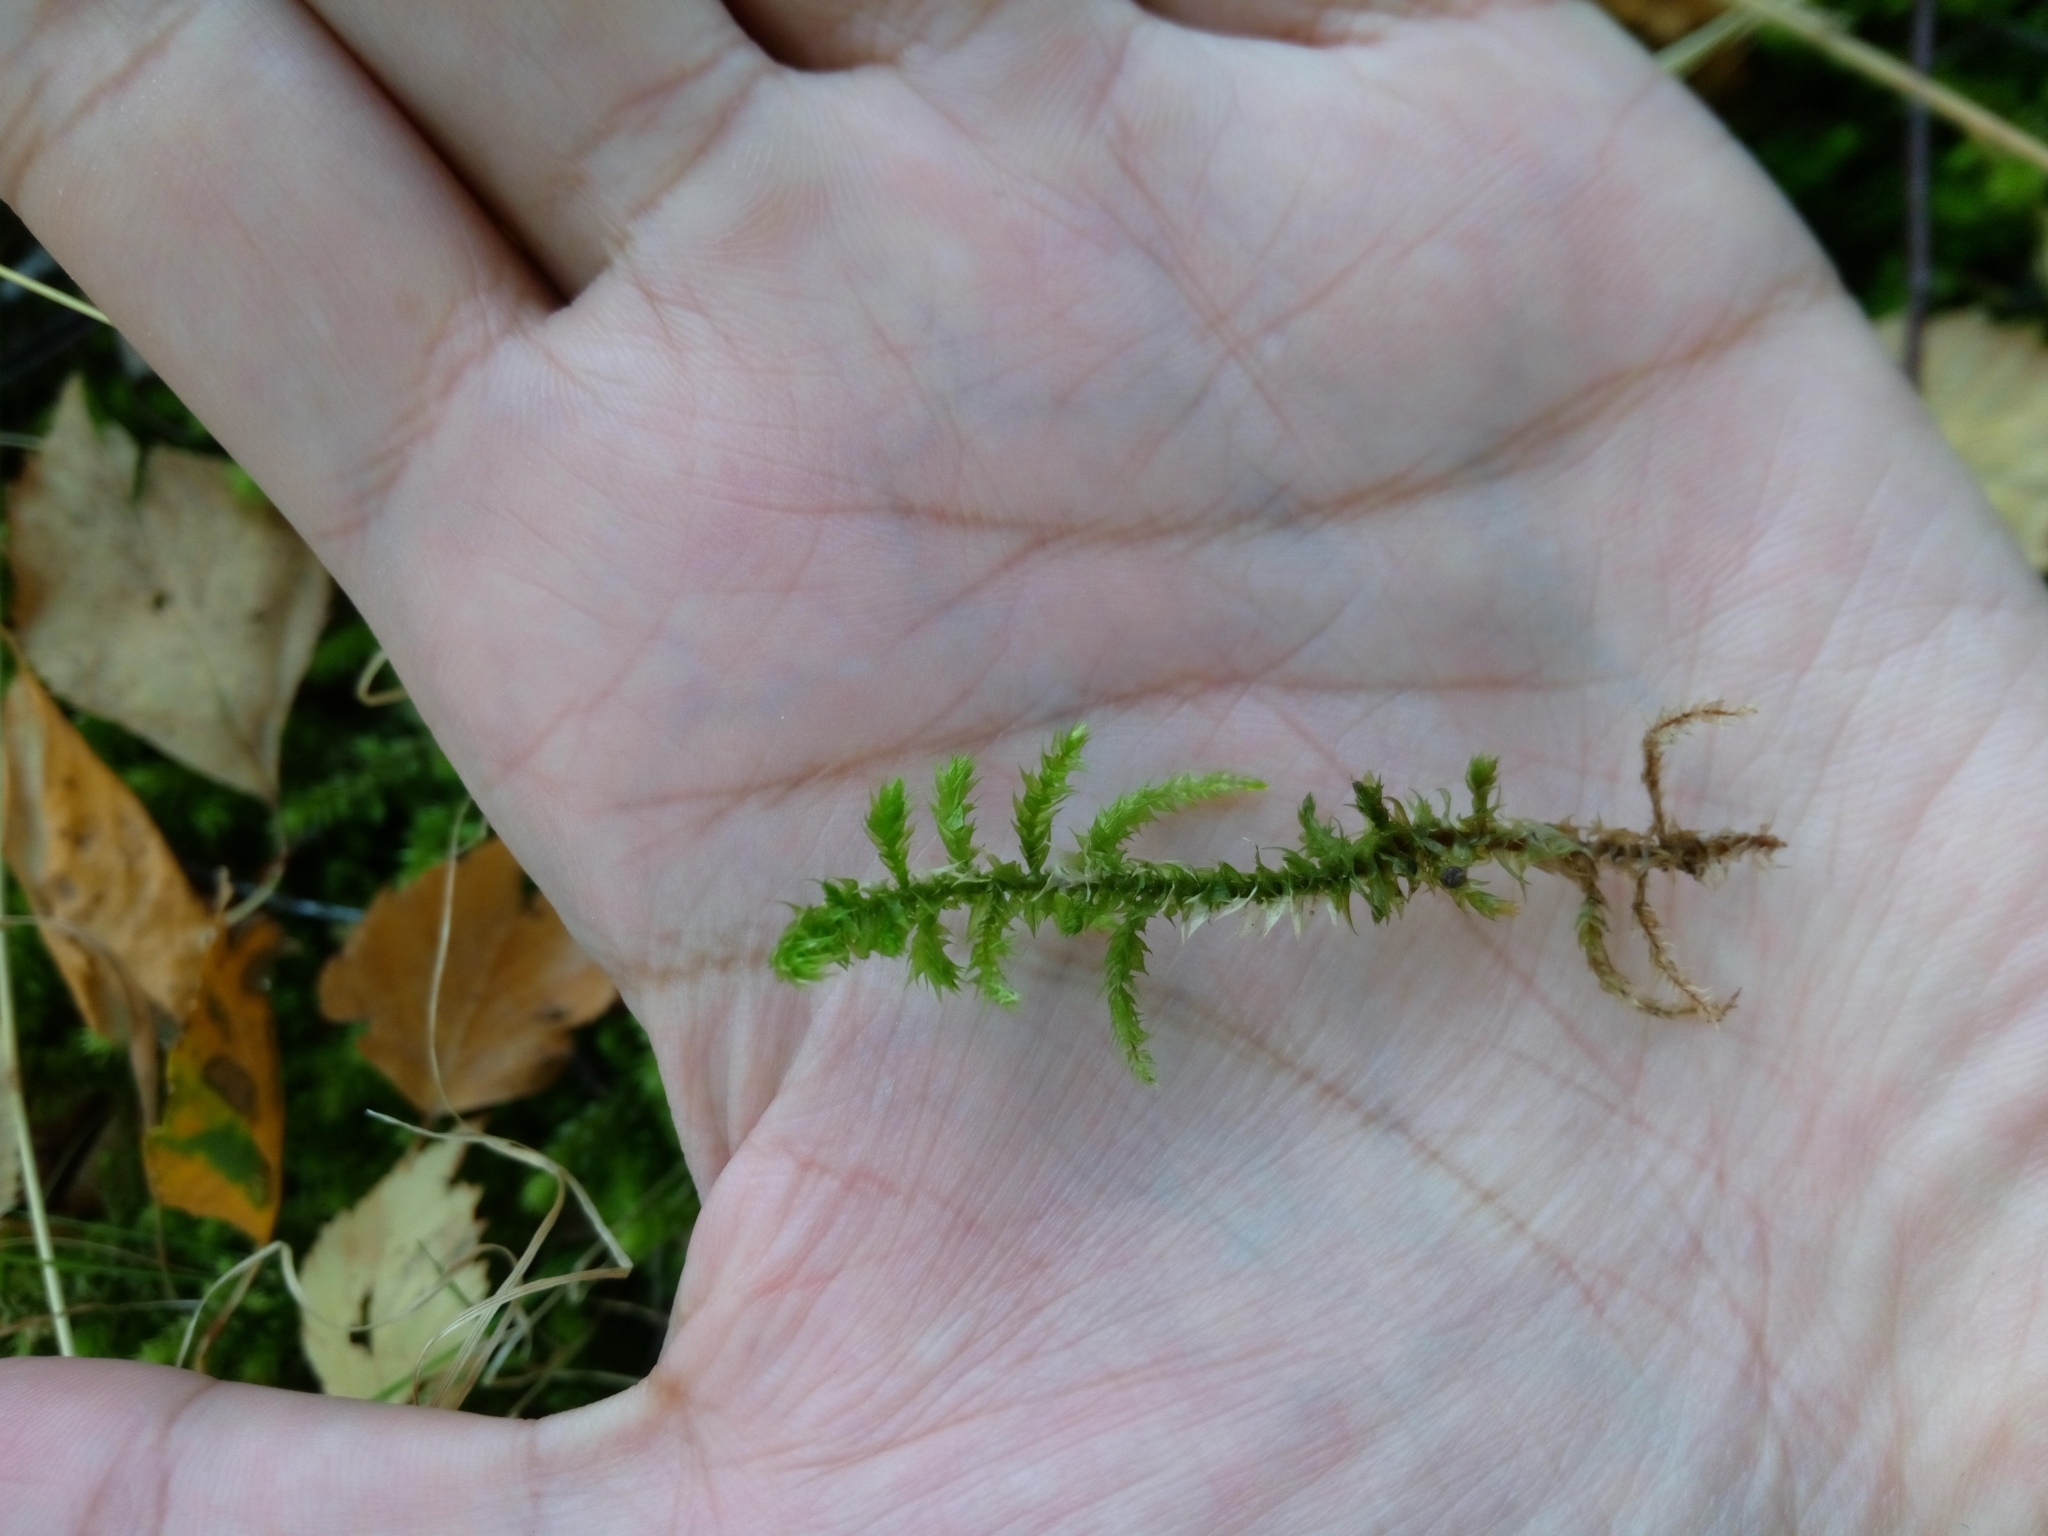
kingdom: Plantae
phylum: Bryophyta
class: Bryopsida
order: Hypnales
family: Hylocomiaceae
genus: Hylocomiadelphus
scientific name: Hylocomiadelphus triquetrus
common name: Rough goose neck moss
